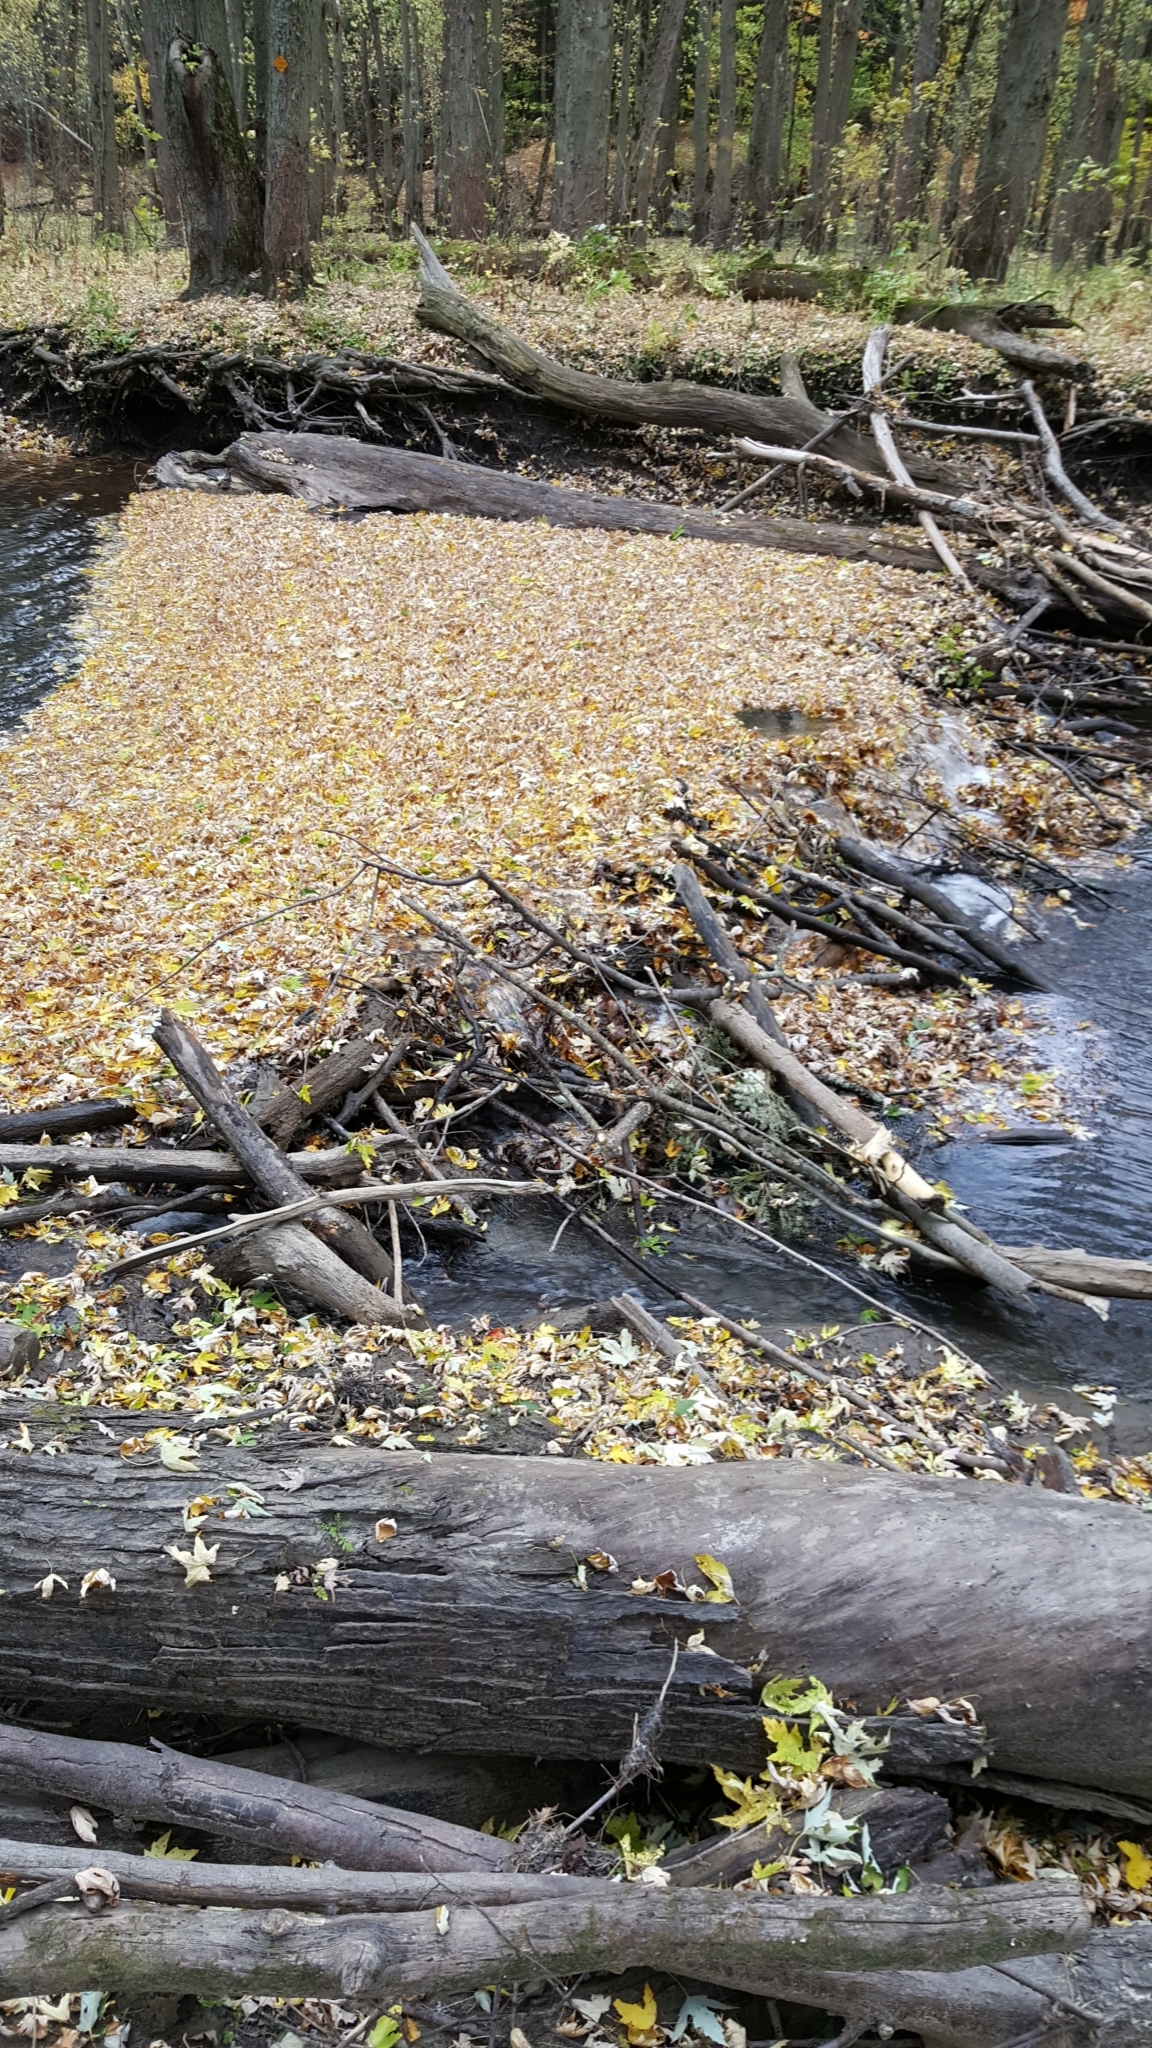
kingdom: Animalia
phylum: Chordata
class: Mammalia
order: Rodentia
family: Castoridae
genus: Castor
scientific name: Castor canadensis
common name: American beaver
